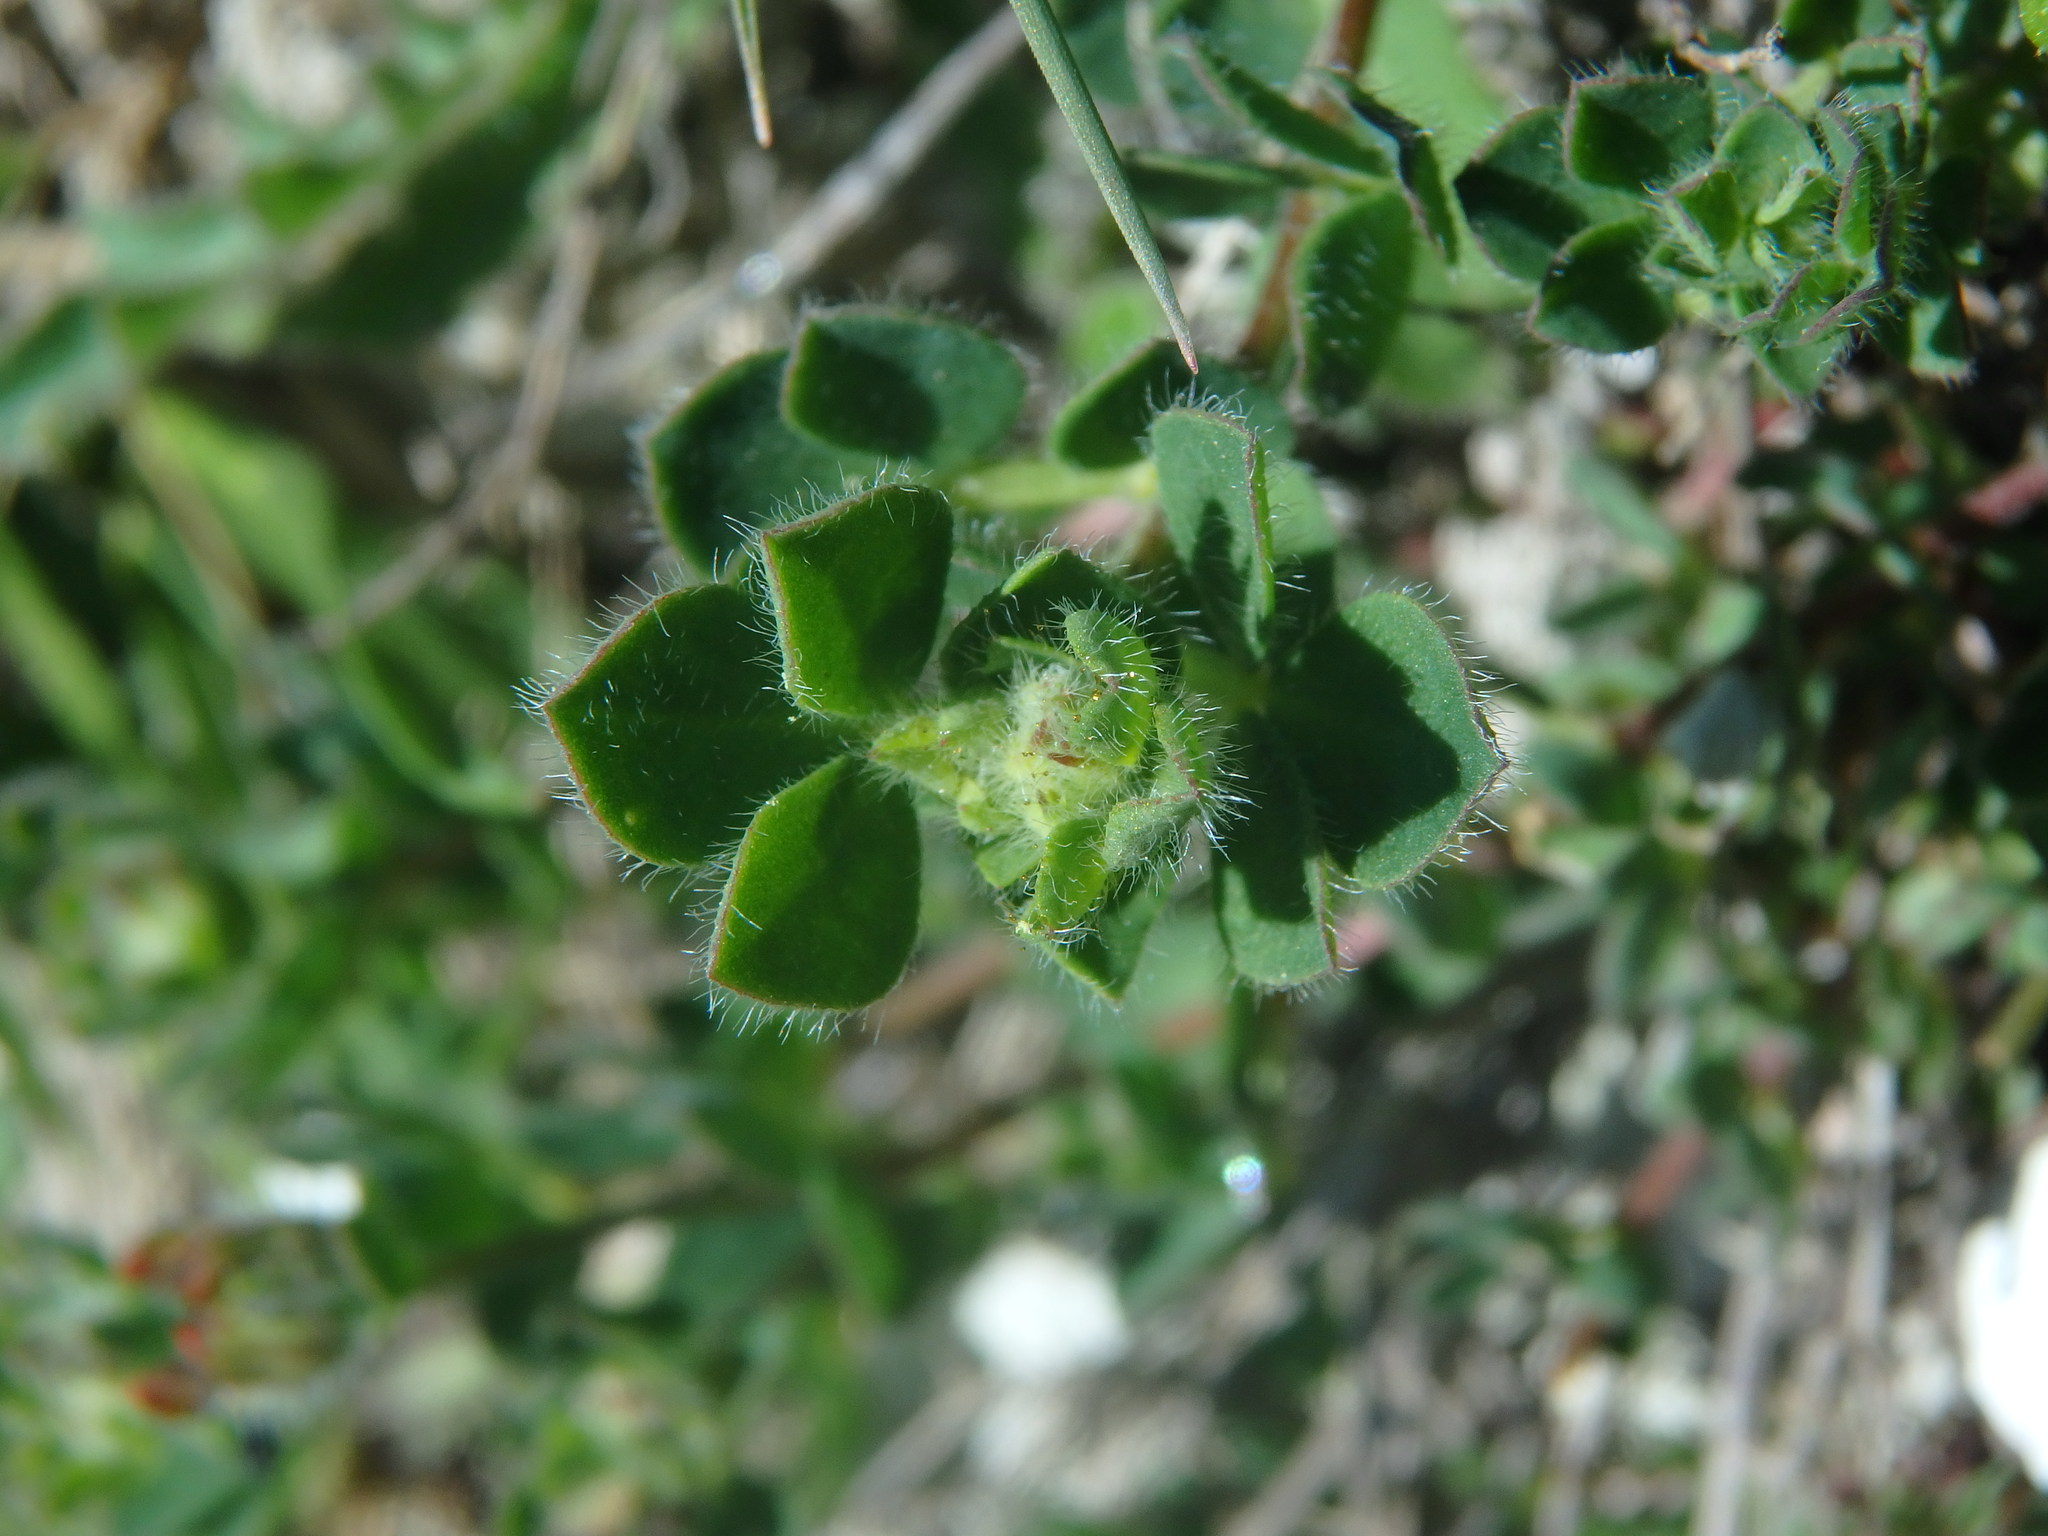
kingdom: Plantae
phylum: Tracheophyta
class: Magnoliopsida
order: Fabales
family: Fabaceae
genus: Lotus
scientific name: Lotus corniculatus
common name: Common bird's-foot-trefoil
